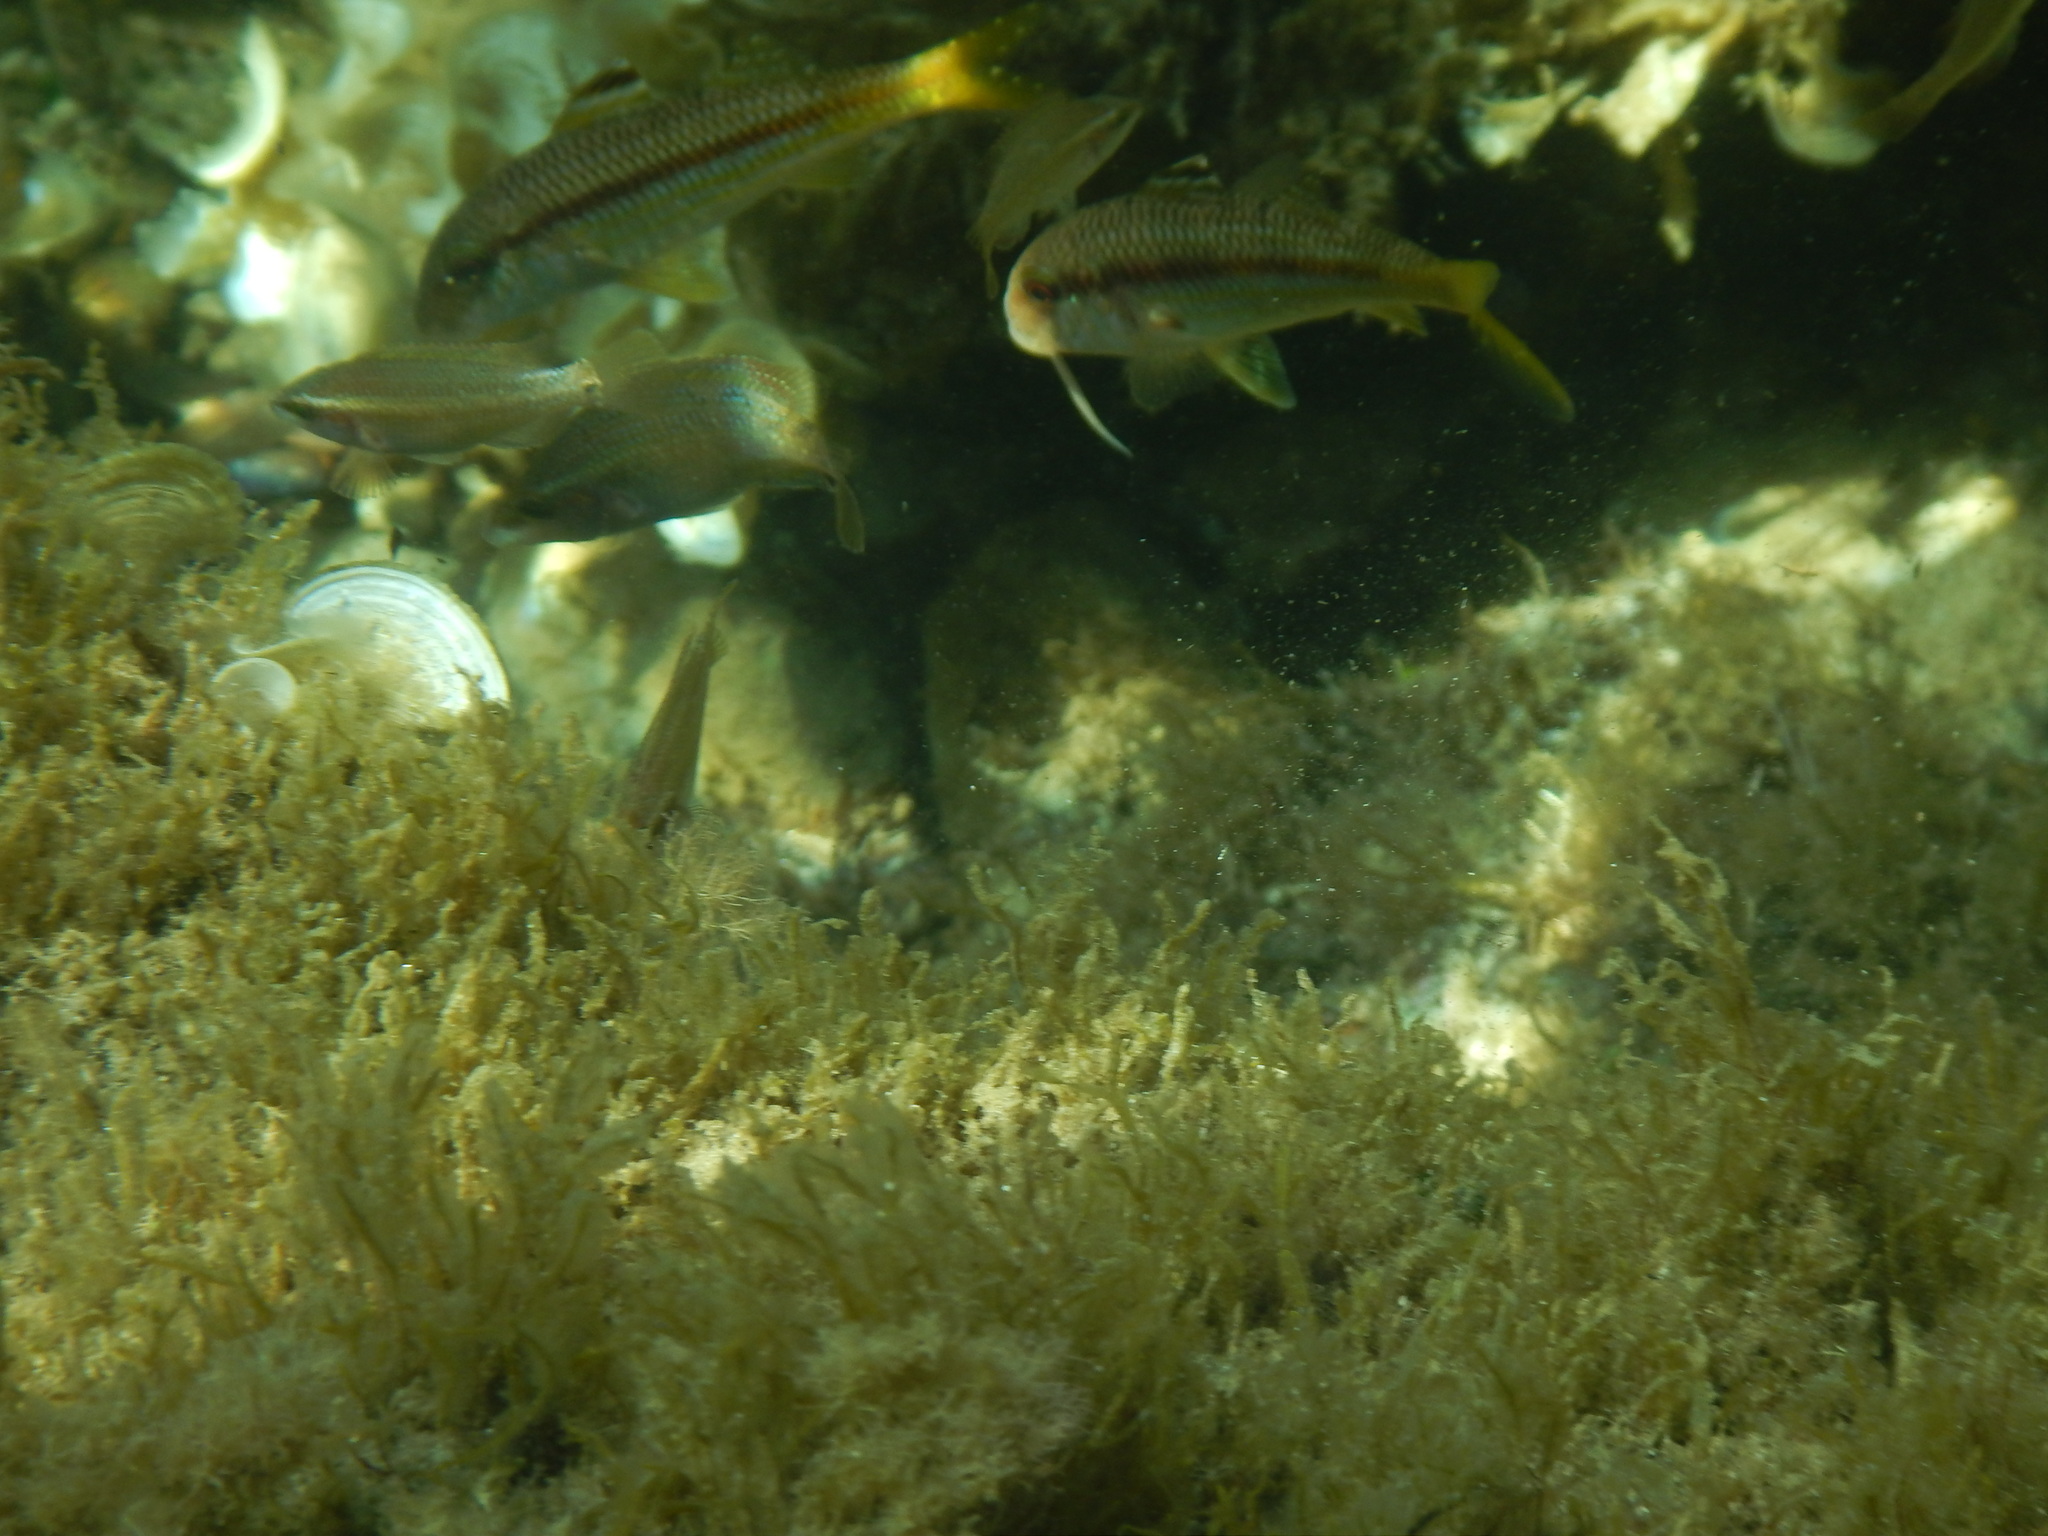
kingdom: Animalia
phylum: Chordata
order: Perciformes
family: Mullidae
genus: Mullus
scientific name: Mullus surmuletus
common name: Red mullet
